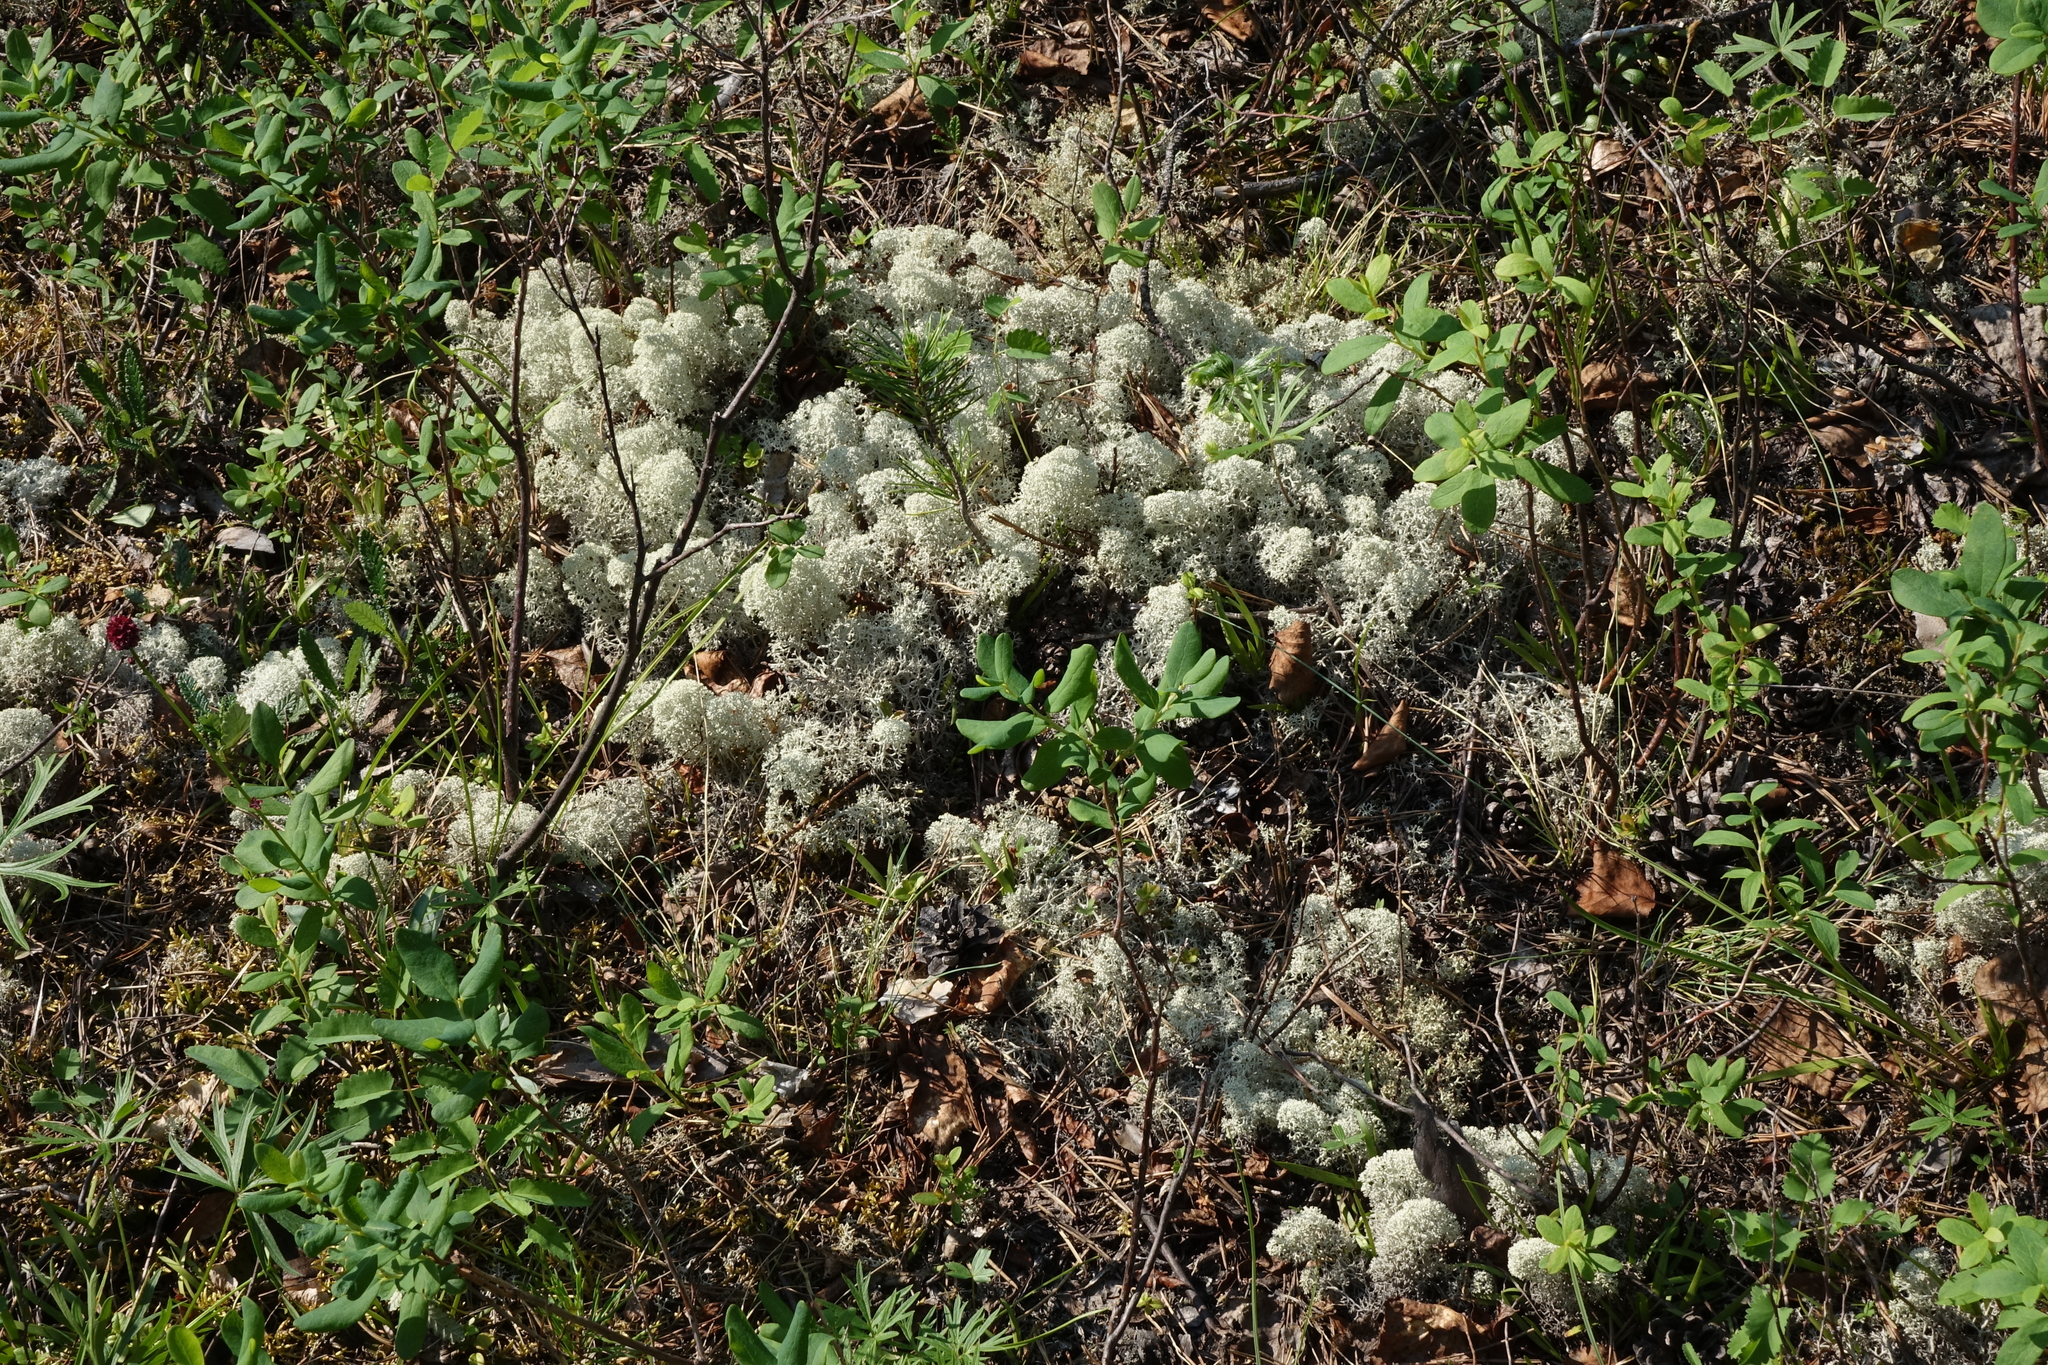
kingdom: Fungi
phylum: Ascomycota
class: Lecanoromycetes
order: Lecanorales
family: Cladoniaceae
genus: Cladonia
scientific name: Cladonia stellaris
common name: Star-tipped reindeer lichen
